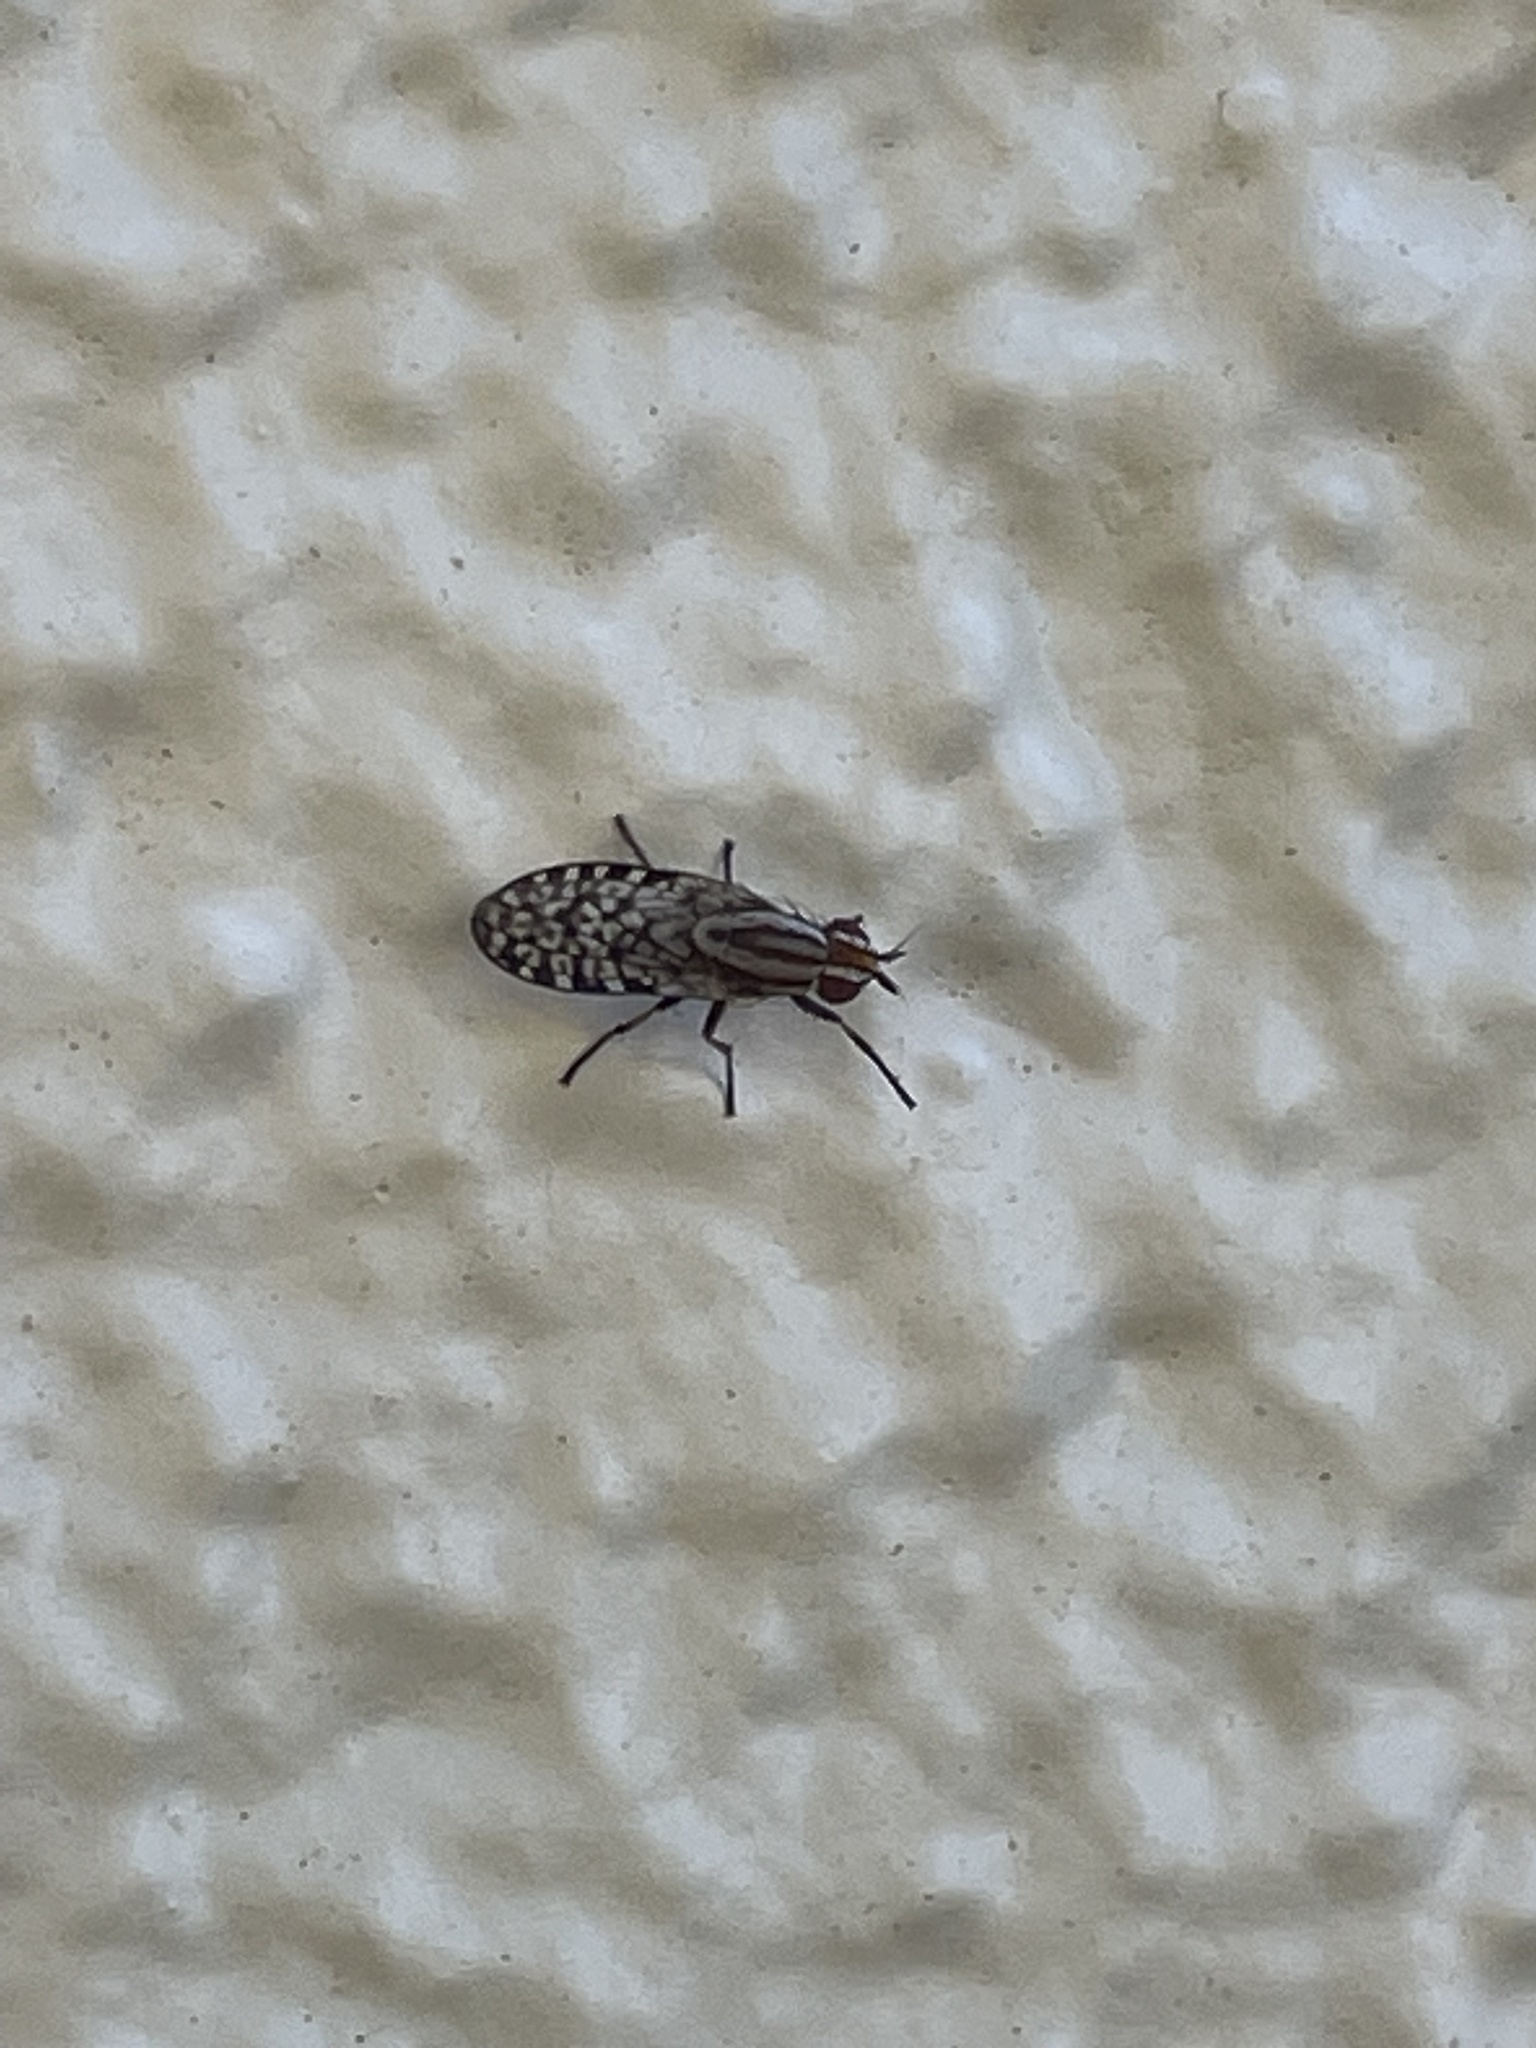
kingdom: Animalia
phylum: Arthropoda
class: Insecta
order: Diptera
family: Lauxaniidae
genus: Sapromyza
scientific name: Sapromyza mallochiana
